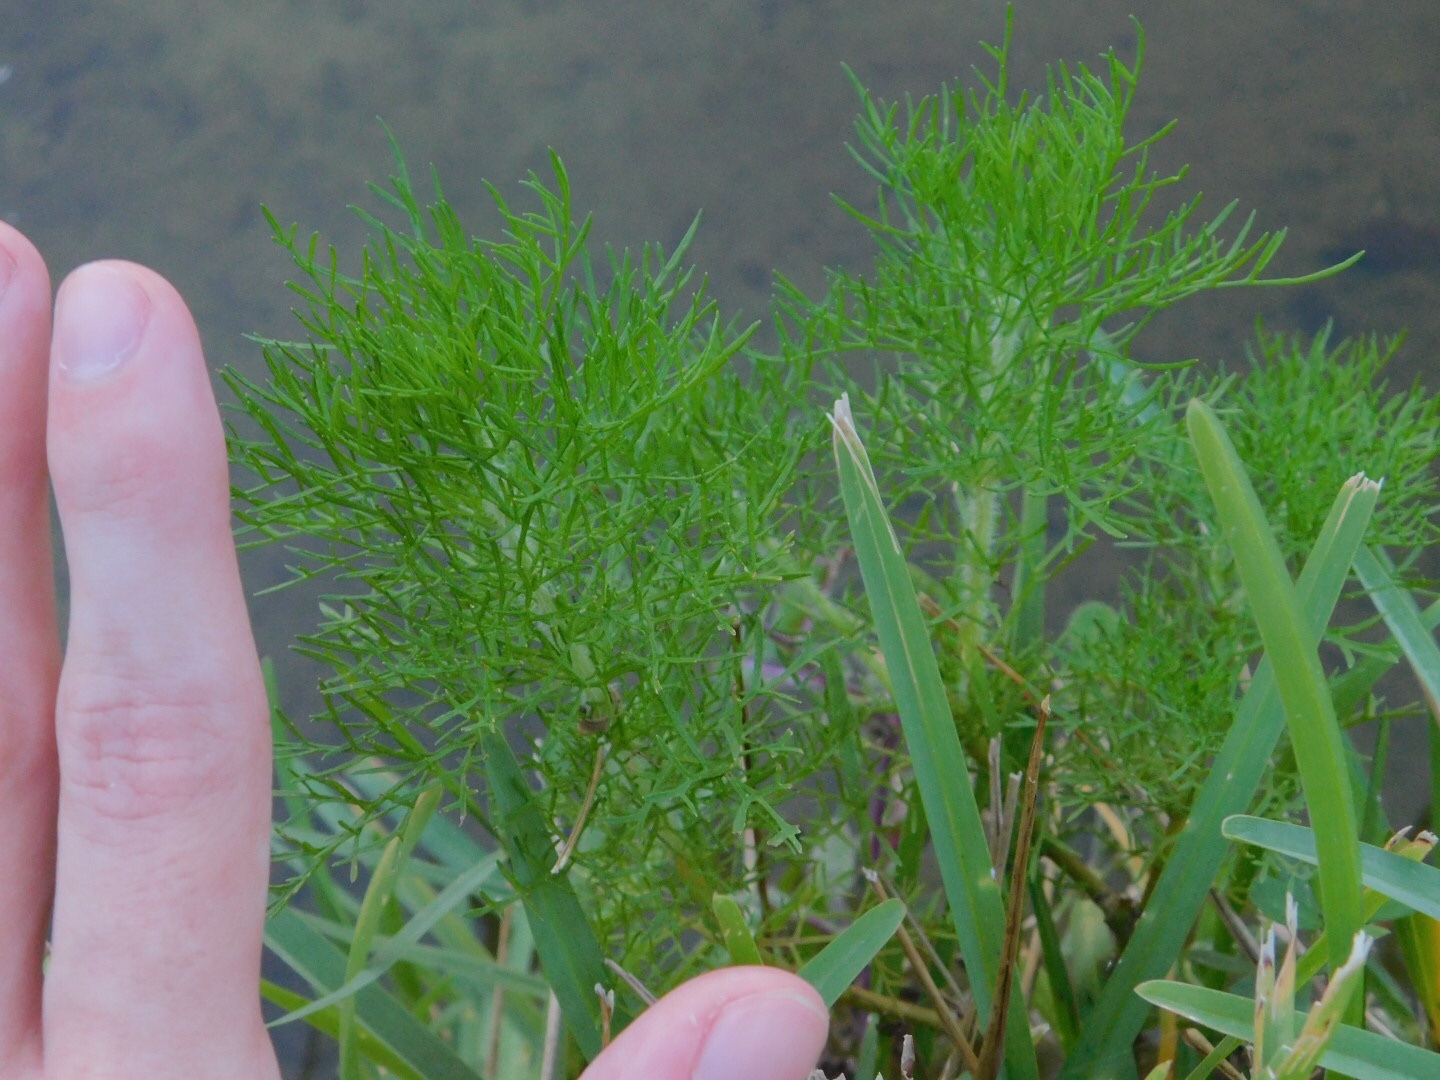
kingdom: Plantae
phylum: Tracheophyta
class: Magnoliopsida
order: Asterales
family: Asteraceae
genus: Eupatorium
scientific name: Eupatorium capillifolium
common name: Dog-fennel
